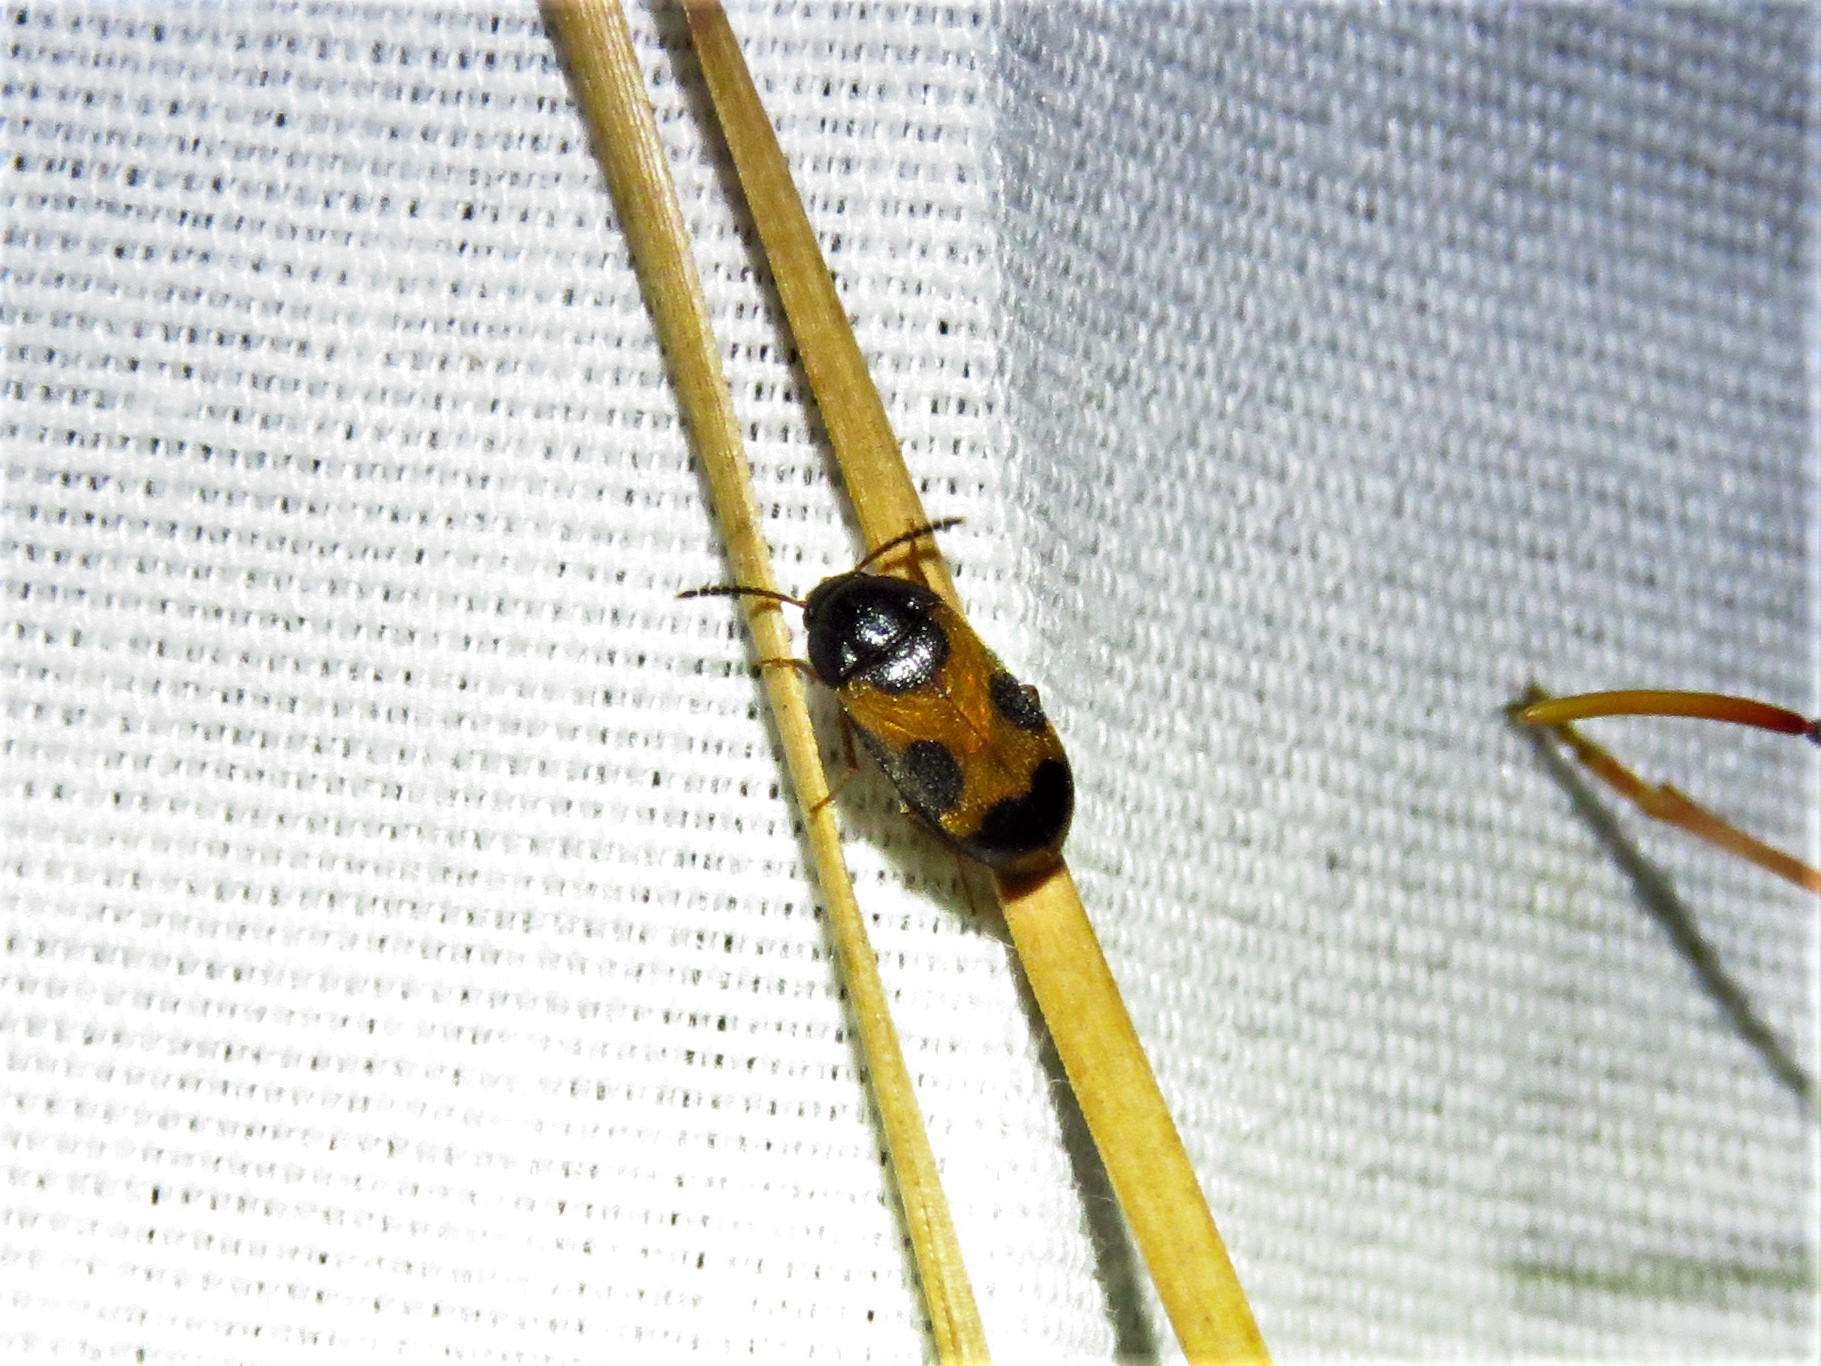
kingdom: Animalia
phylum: Arthropoda
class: Insecta
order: Coleoptera
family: Mycetophagidae
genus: Mycetophagus
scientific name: Mycetophagus punctatus
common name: Hairy fungus beetle
